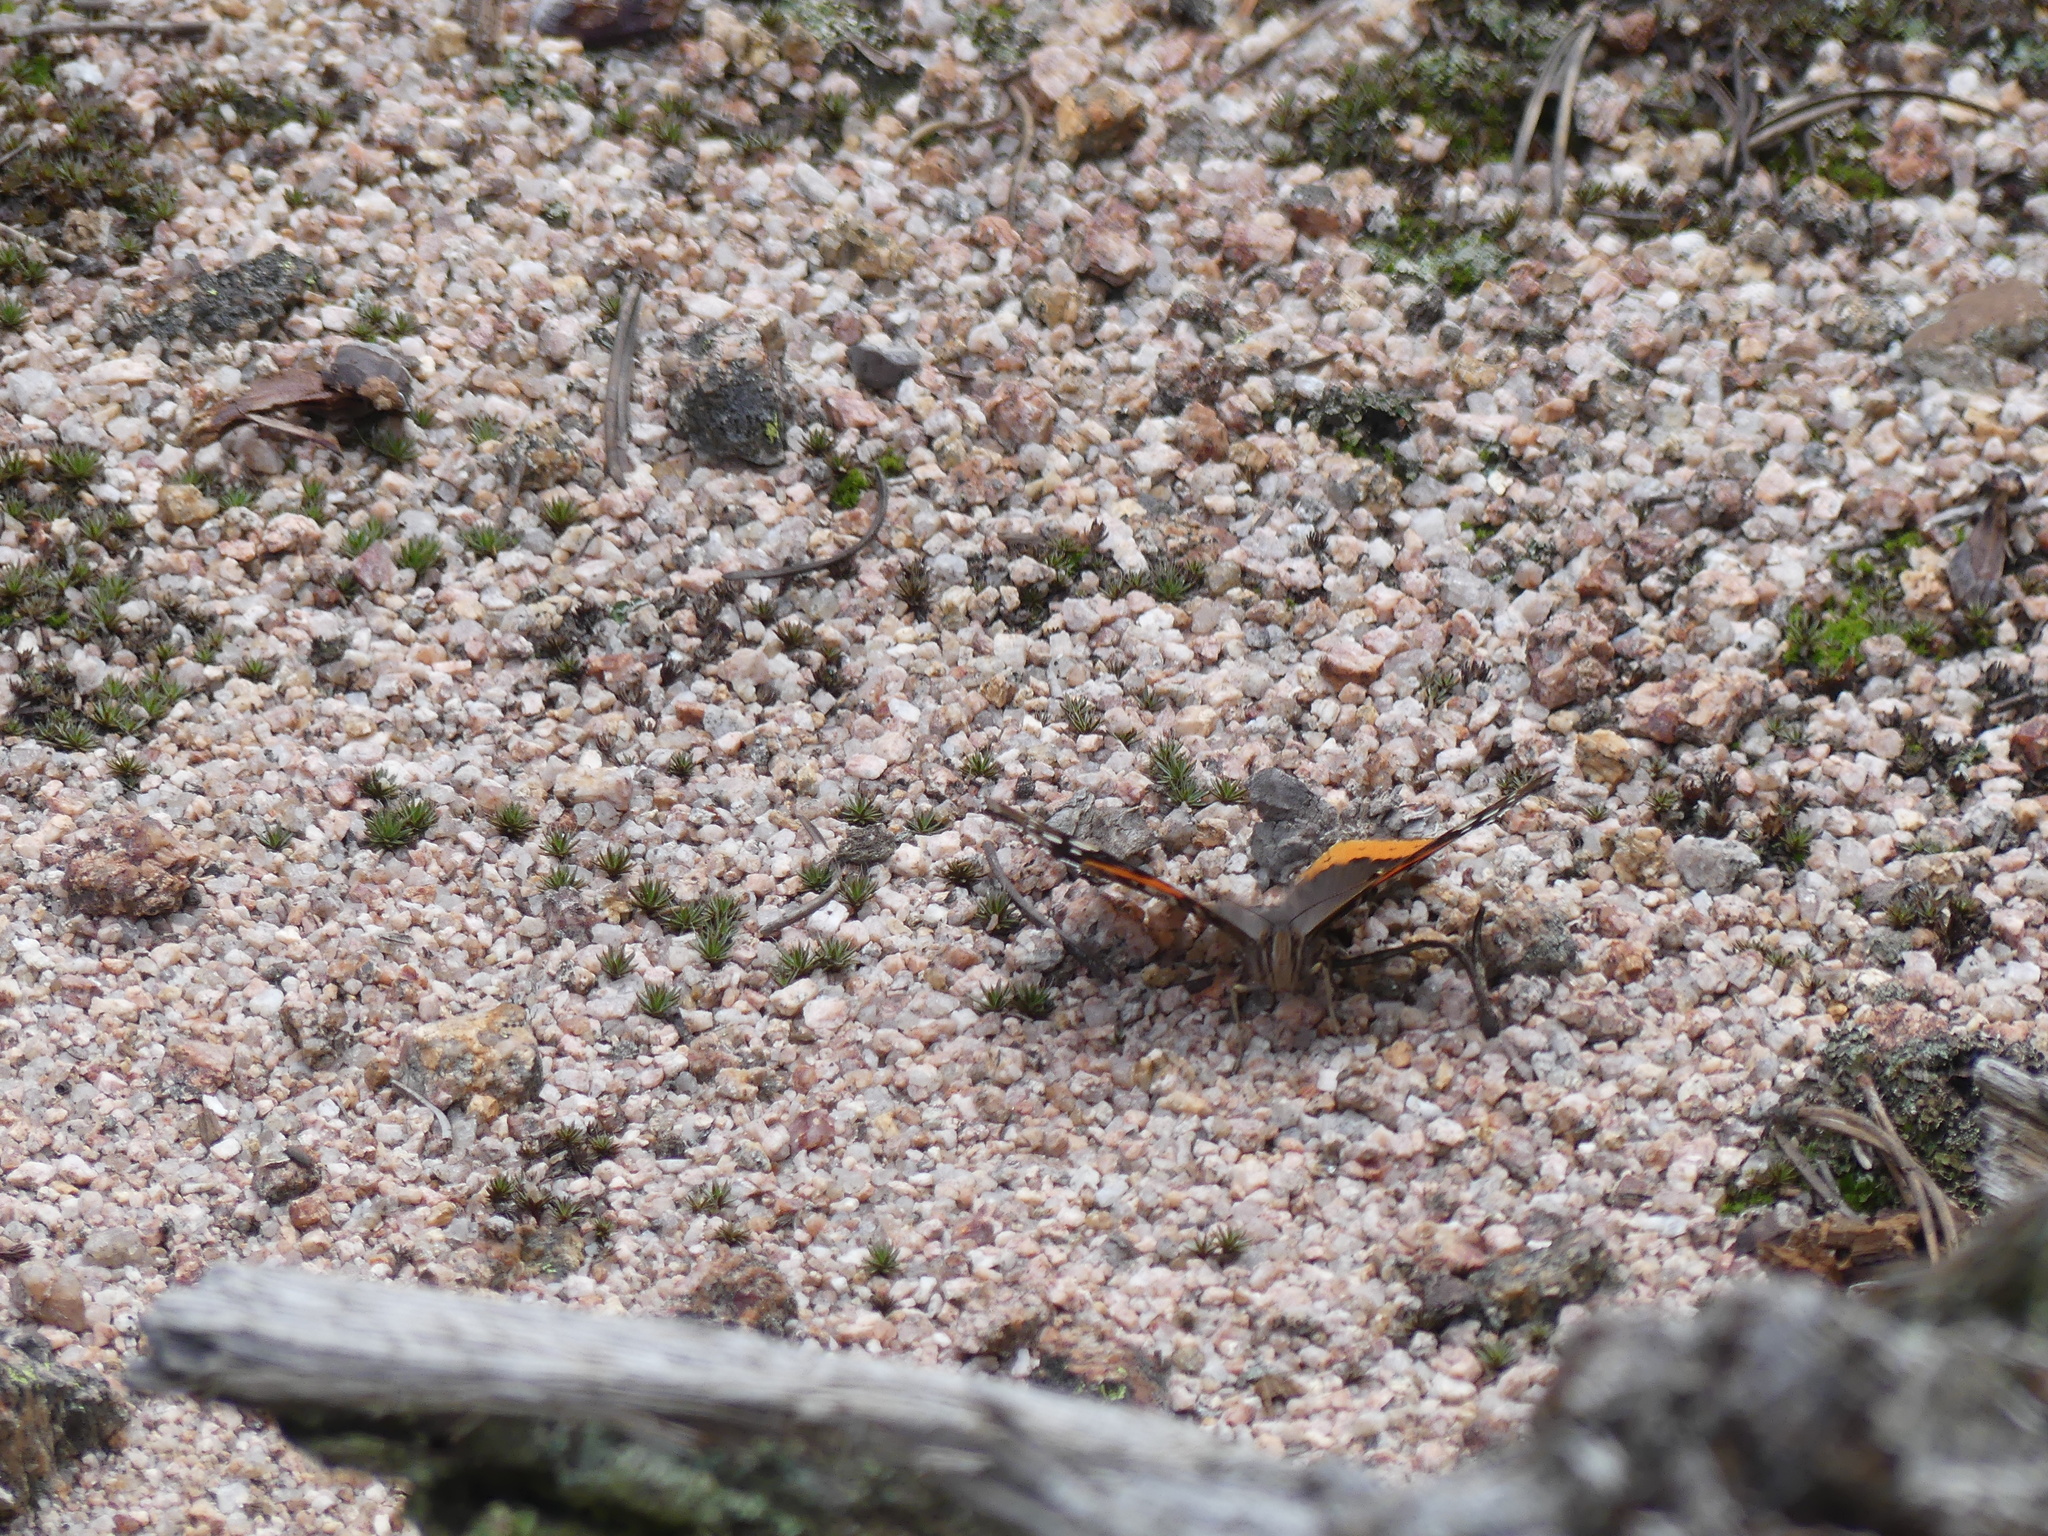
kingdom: Animalia
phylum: Arthropoda
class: Insecta
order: Lepidoptera
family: Nymphalidae
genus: Vanessa
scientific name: Vanessa atalanta
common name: Red admiral
